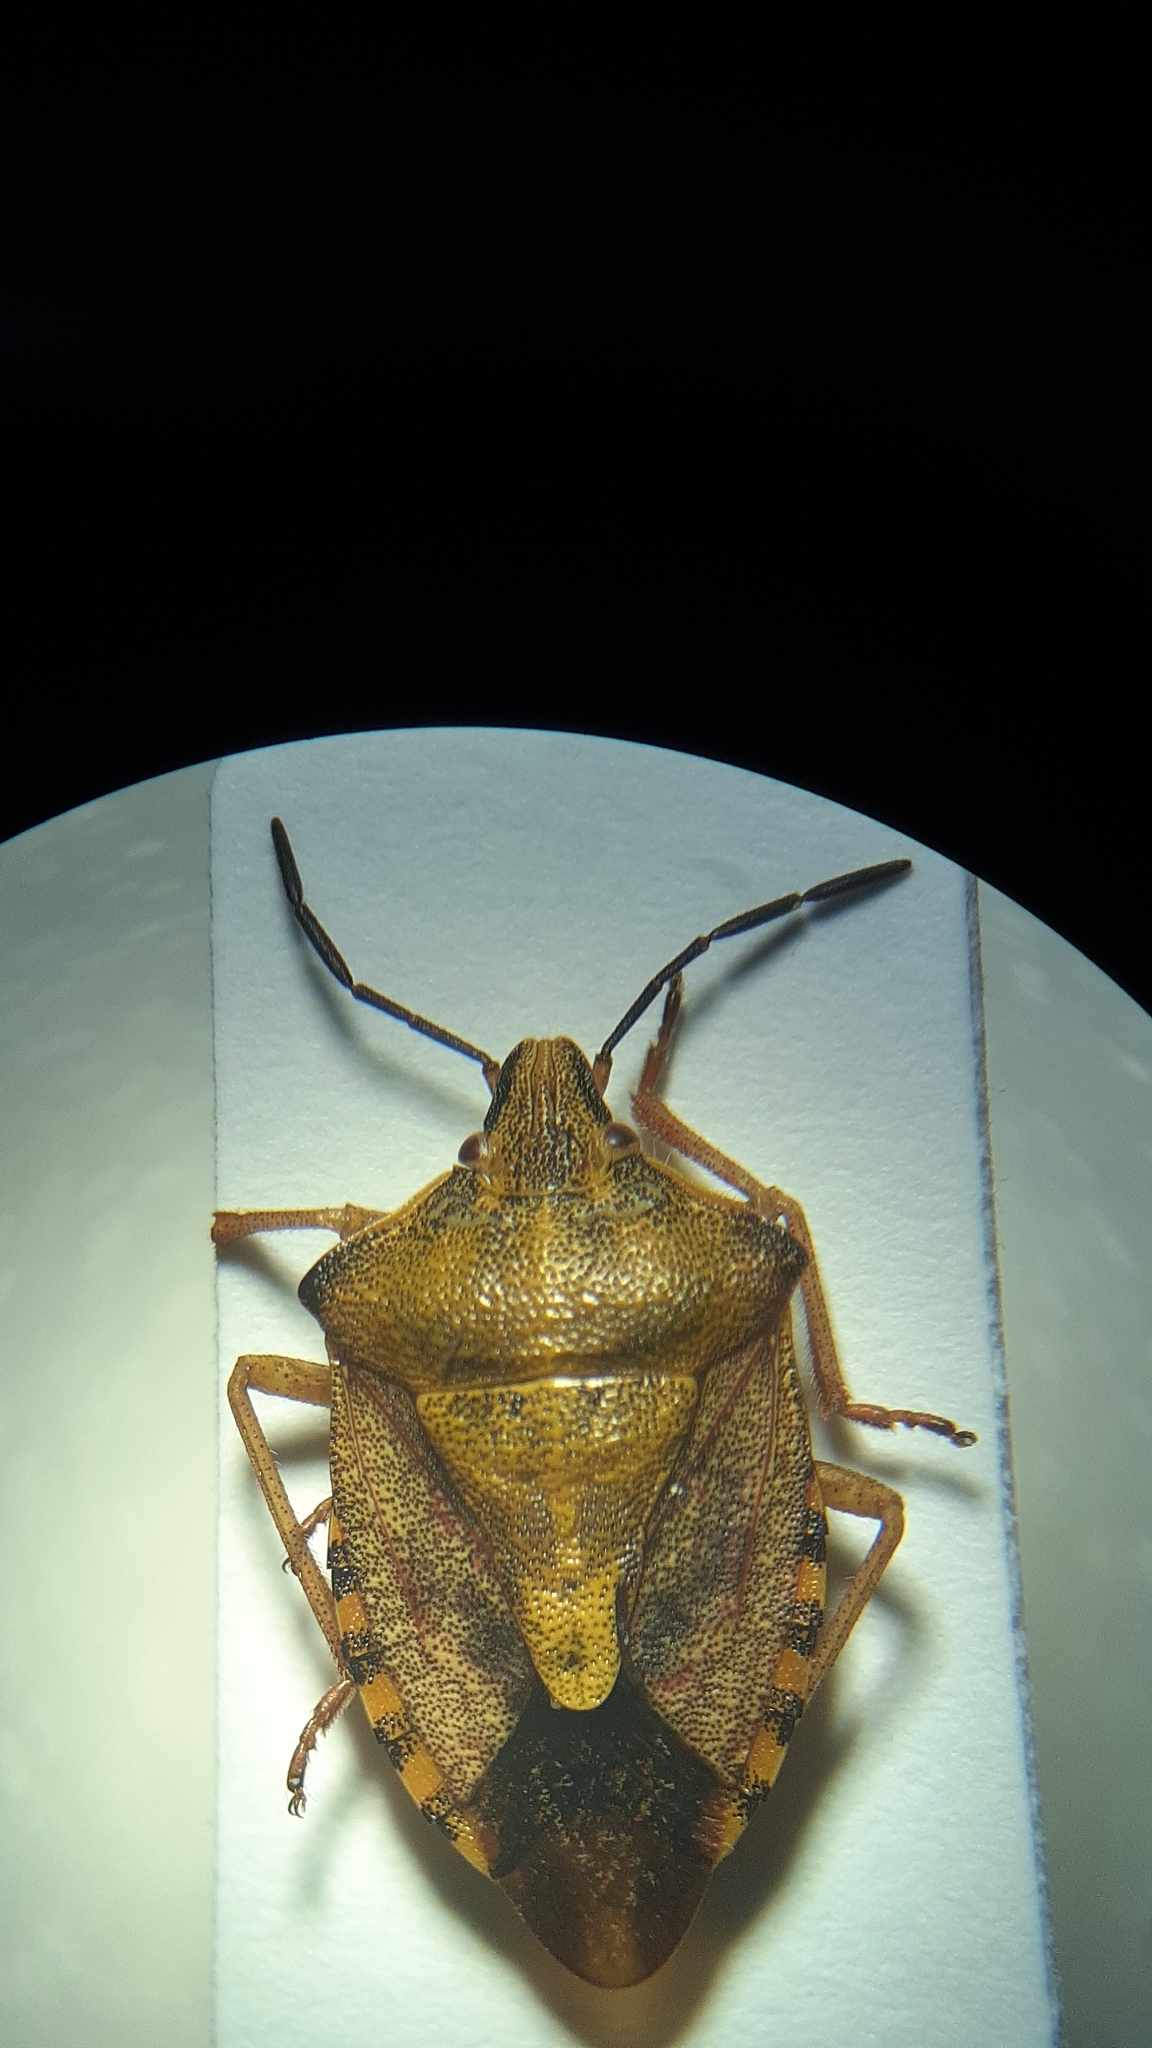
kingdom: Animalia
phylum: Arthropoda
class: Insecta
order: Hemiptera
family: Pentatomidae
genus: Carpocoris
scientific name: Carpocoris purpureipennis
